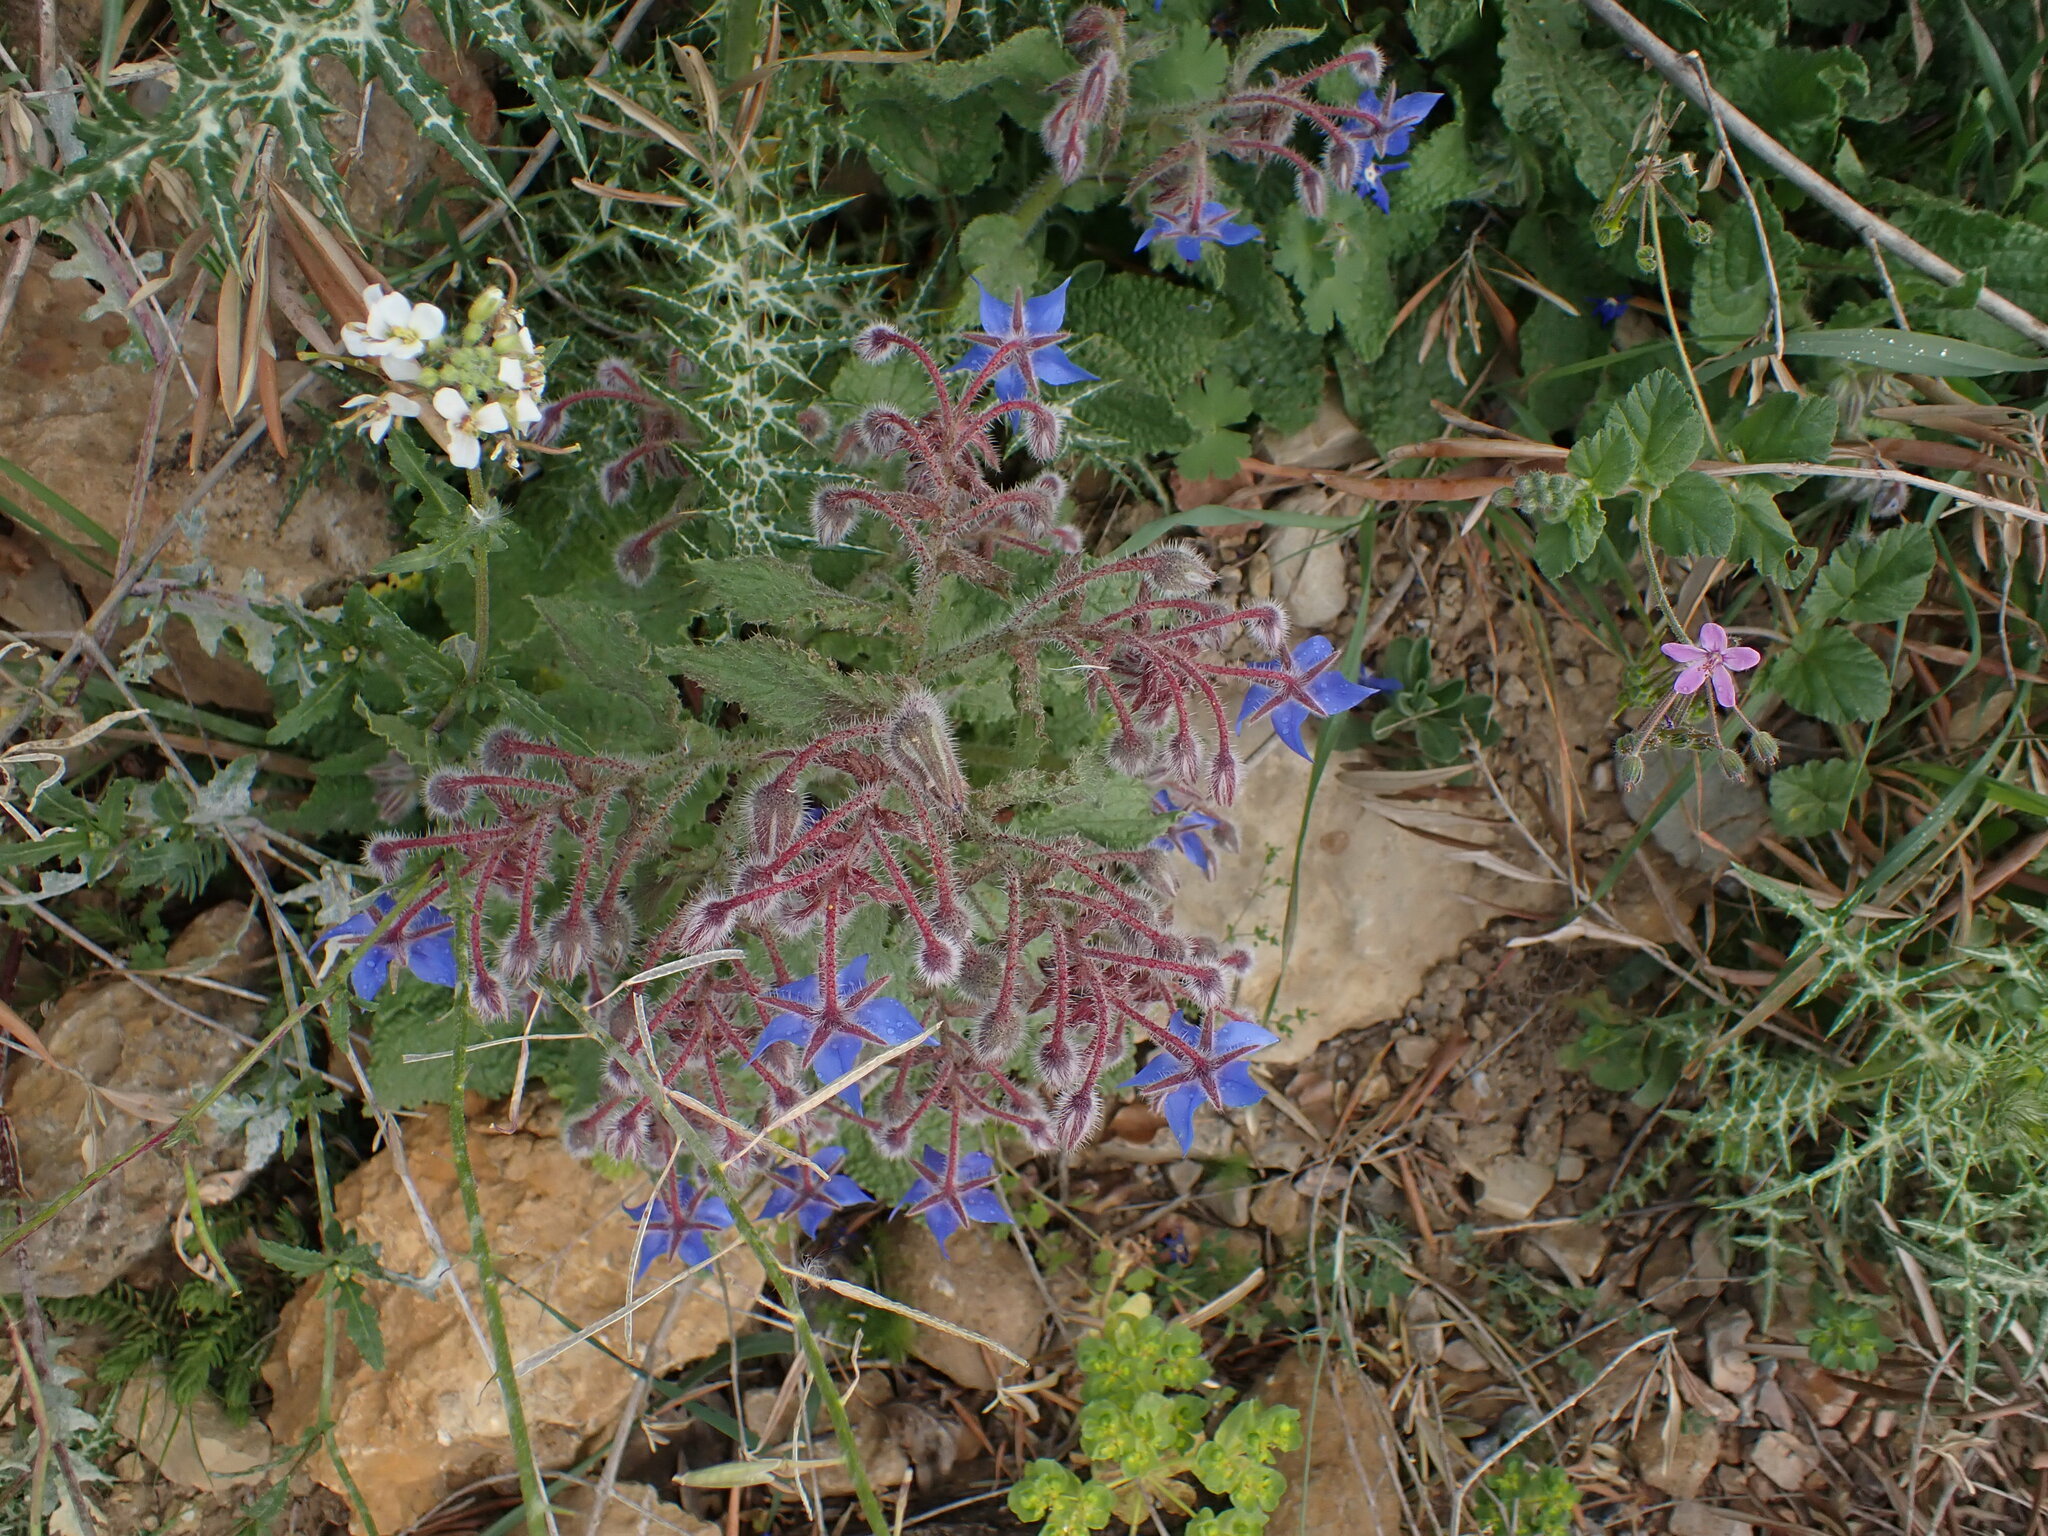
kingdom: Plantae
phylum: Tracheophyta
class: Magnoliopsida
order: Boraginales
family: Boraginaceae
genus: Borago
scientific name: Borago officinalis
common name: Borage
